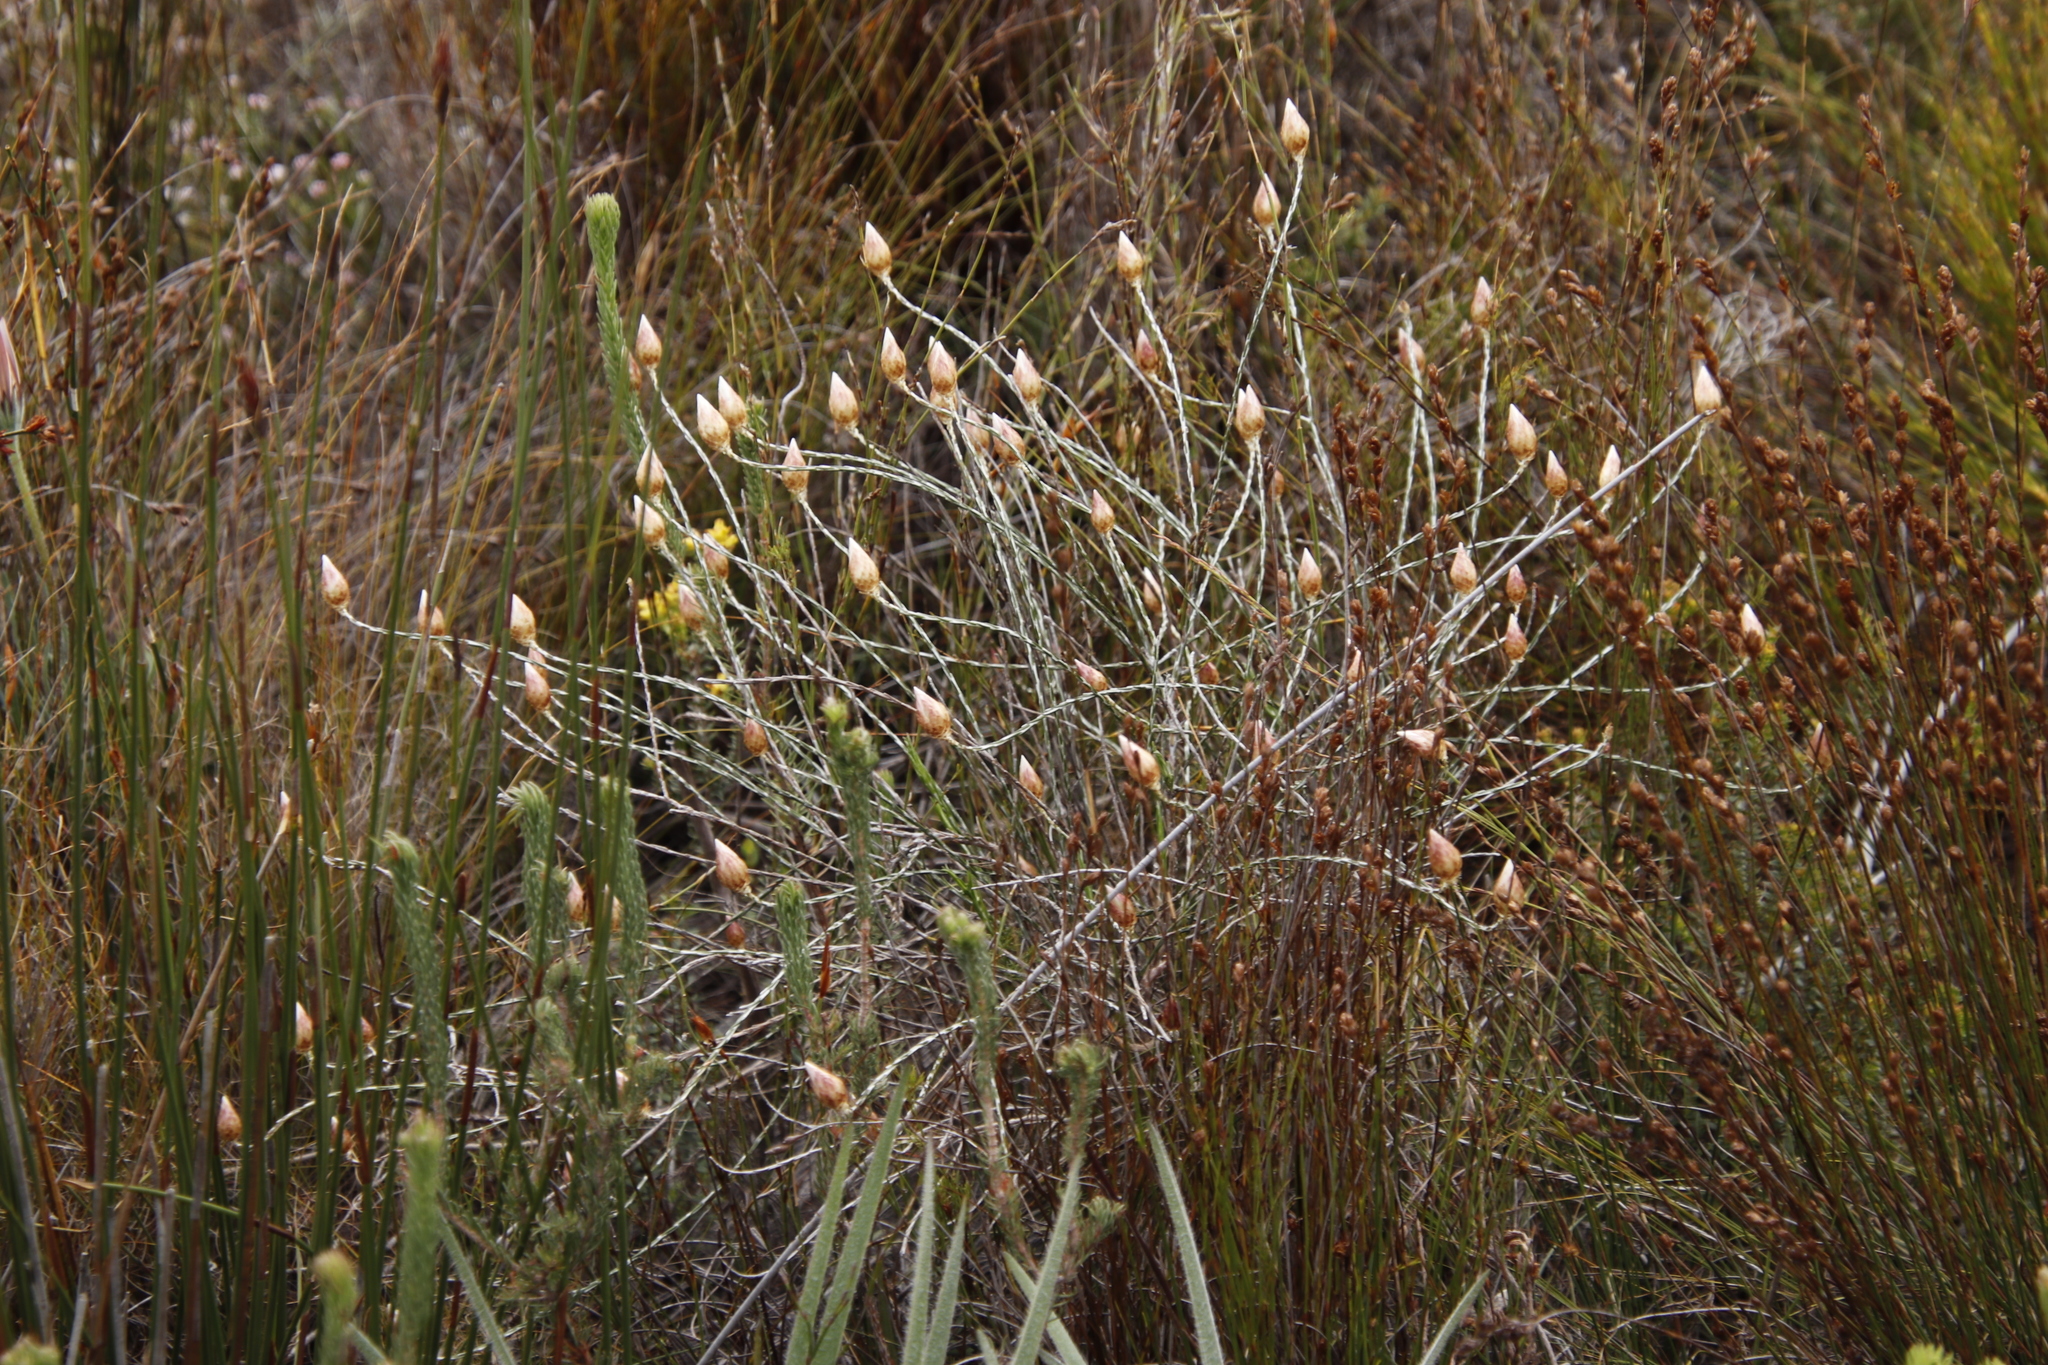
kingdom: Plantae
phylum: Tracheophyta
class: Magnoliopsida
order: Asterales
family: Asteraceae
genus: Edmondia
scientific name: Edmondia sesamoides
